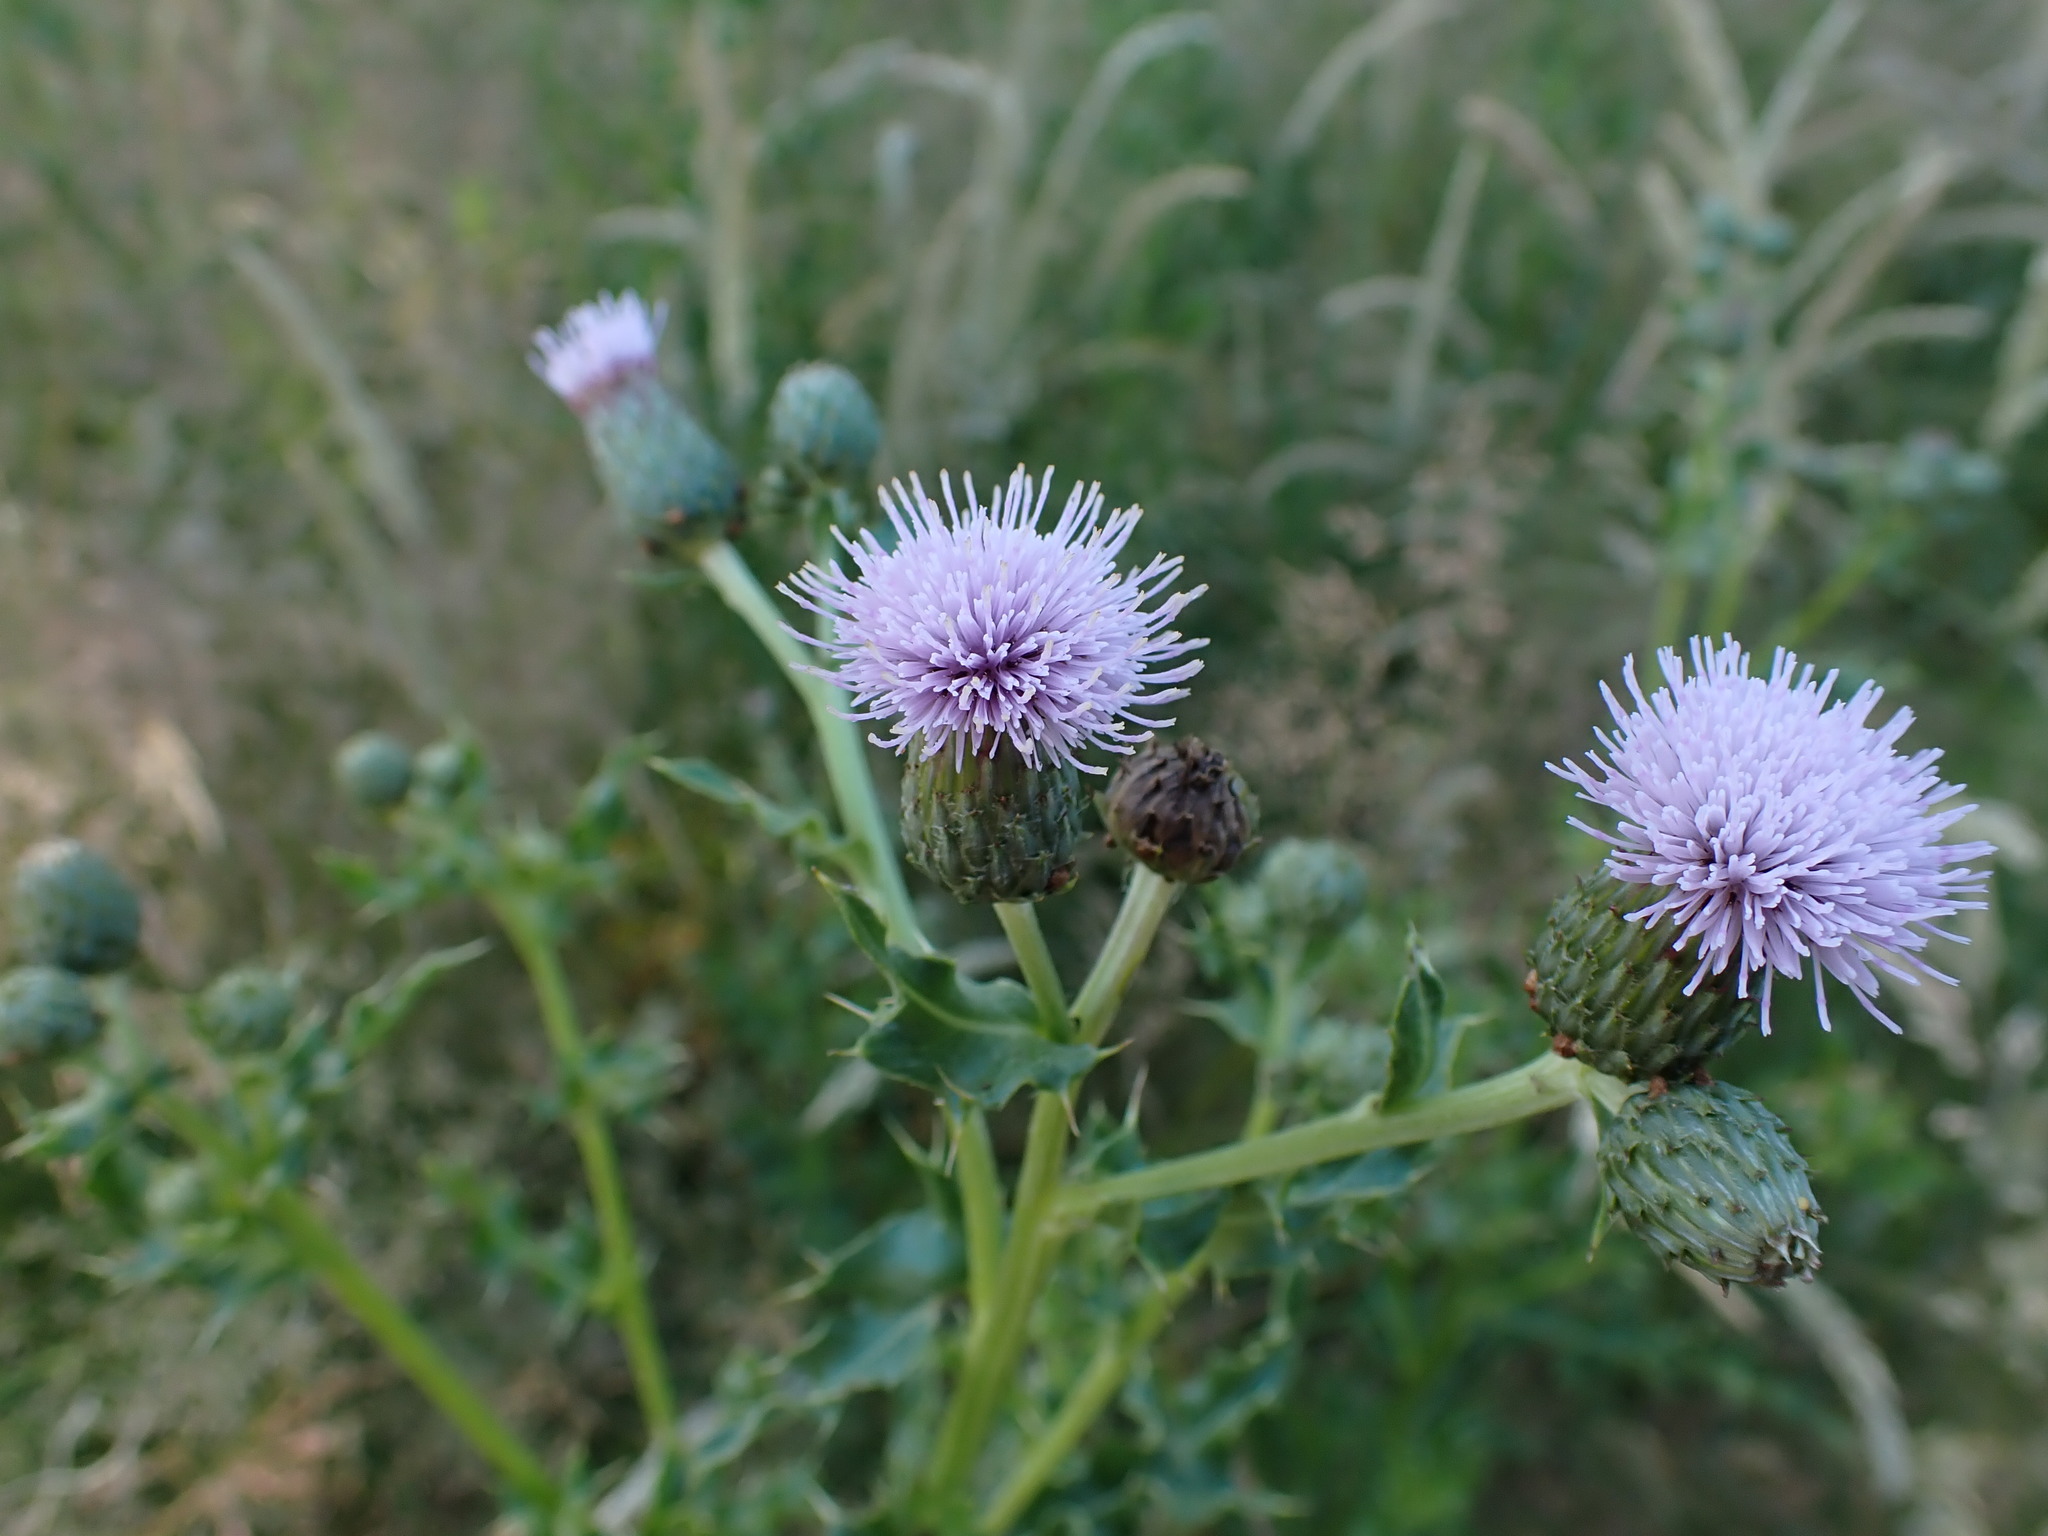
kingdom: Plantae
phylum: Tracheophyta
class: Magnoliopsida
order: Asterales
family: Asteraceae
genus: Cirsium
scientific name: Cirsium arvense
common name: Creeping thistle
